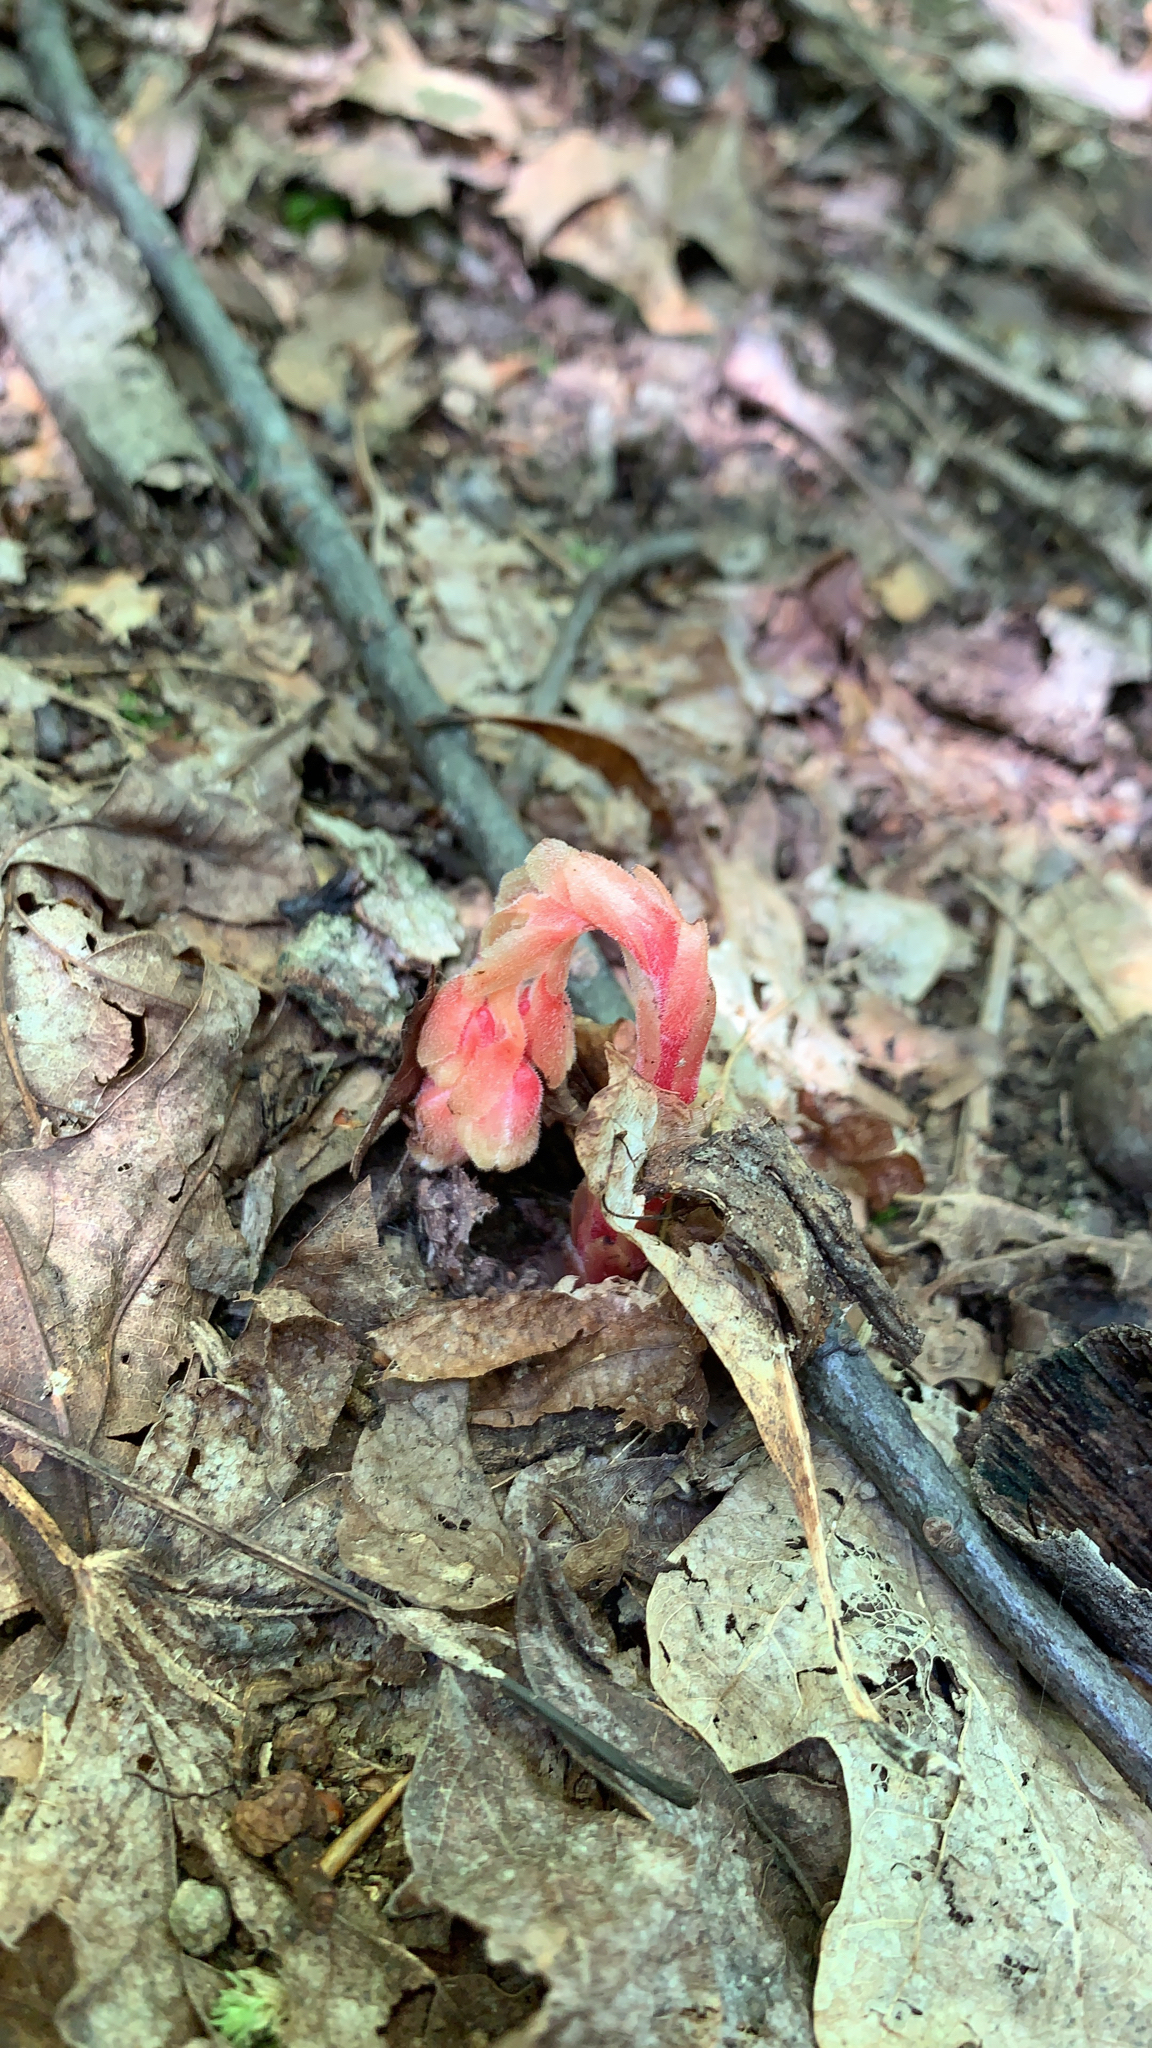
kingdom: Plantae
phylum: Tracheophyta
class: Magnoliopsida
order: Ericales
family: Ericaceae
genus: Hypopitys
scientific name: Hypopitys monotropa
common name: Yellow bird's-nest
